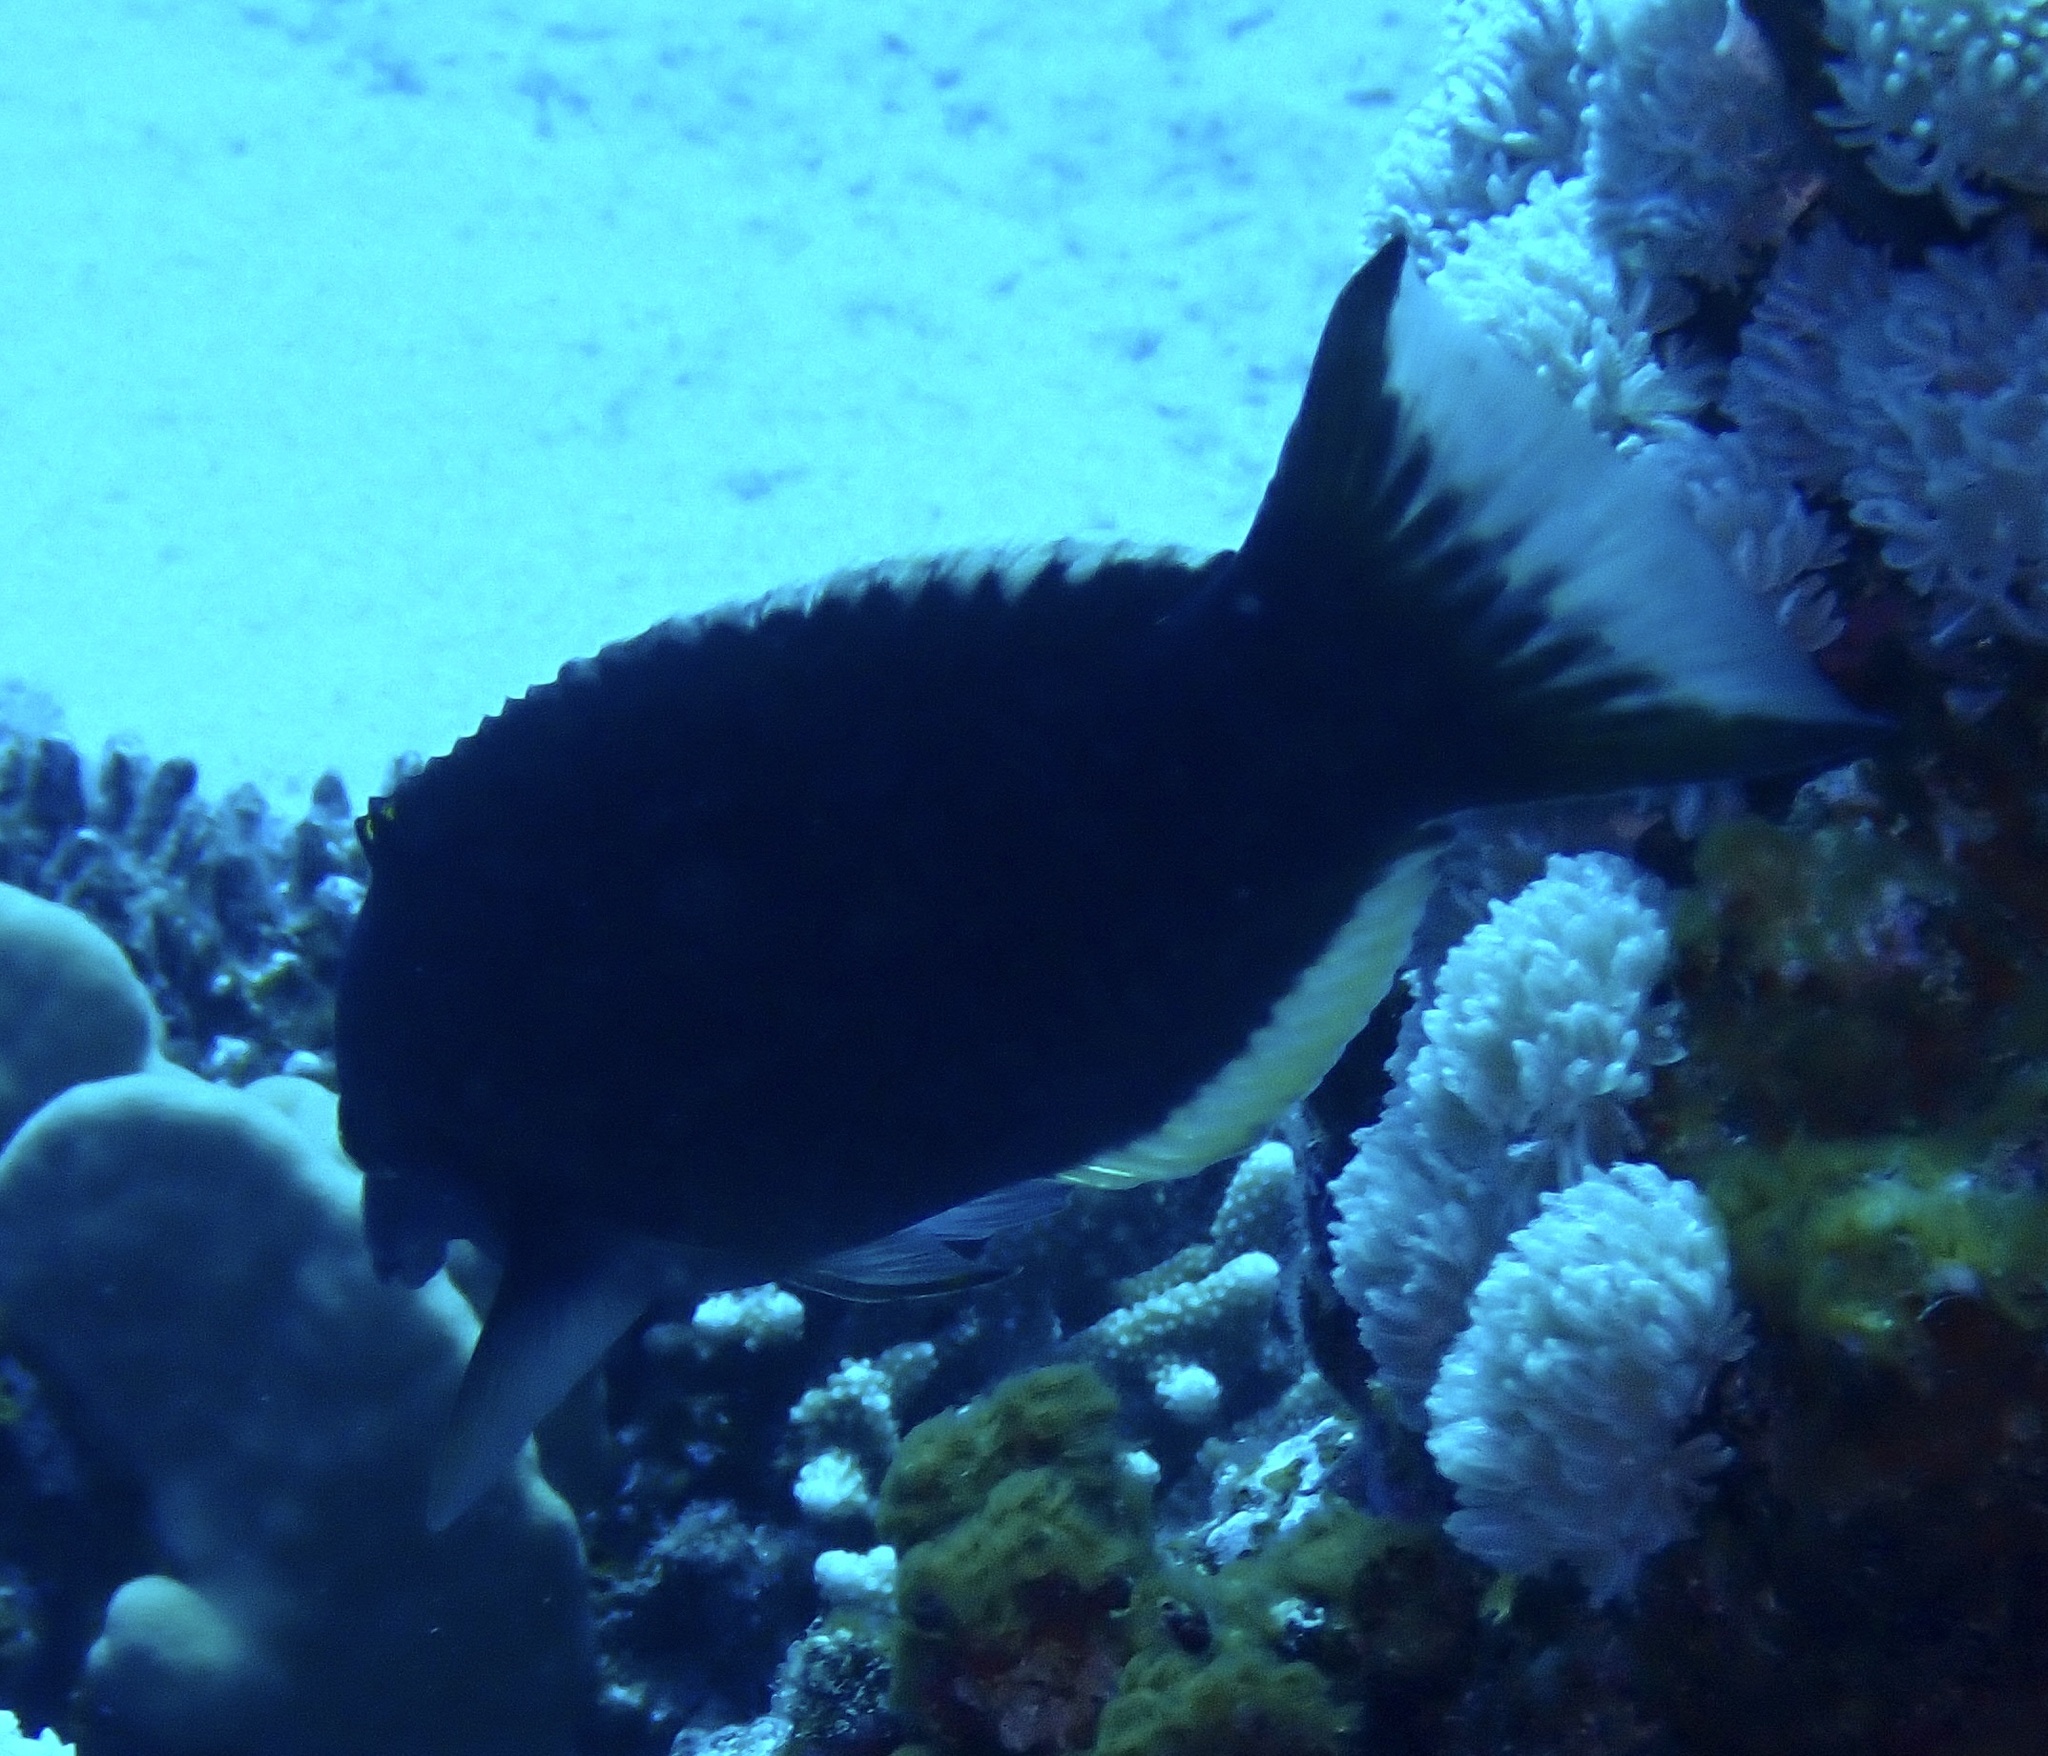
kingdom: Animalia
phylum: Chordata
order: Perciformes
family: Labridae
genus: Gomphosus
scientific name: Gomphosus klunzingeri
